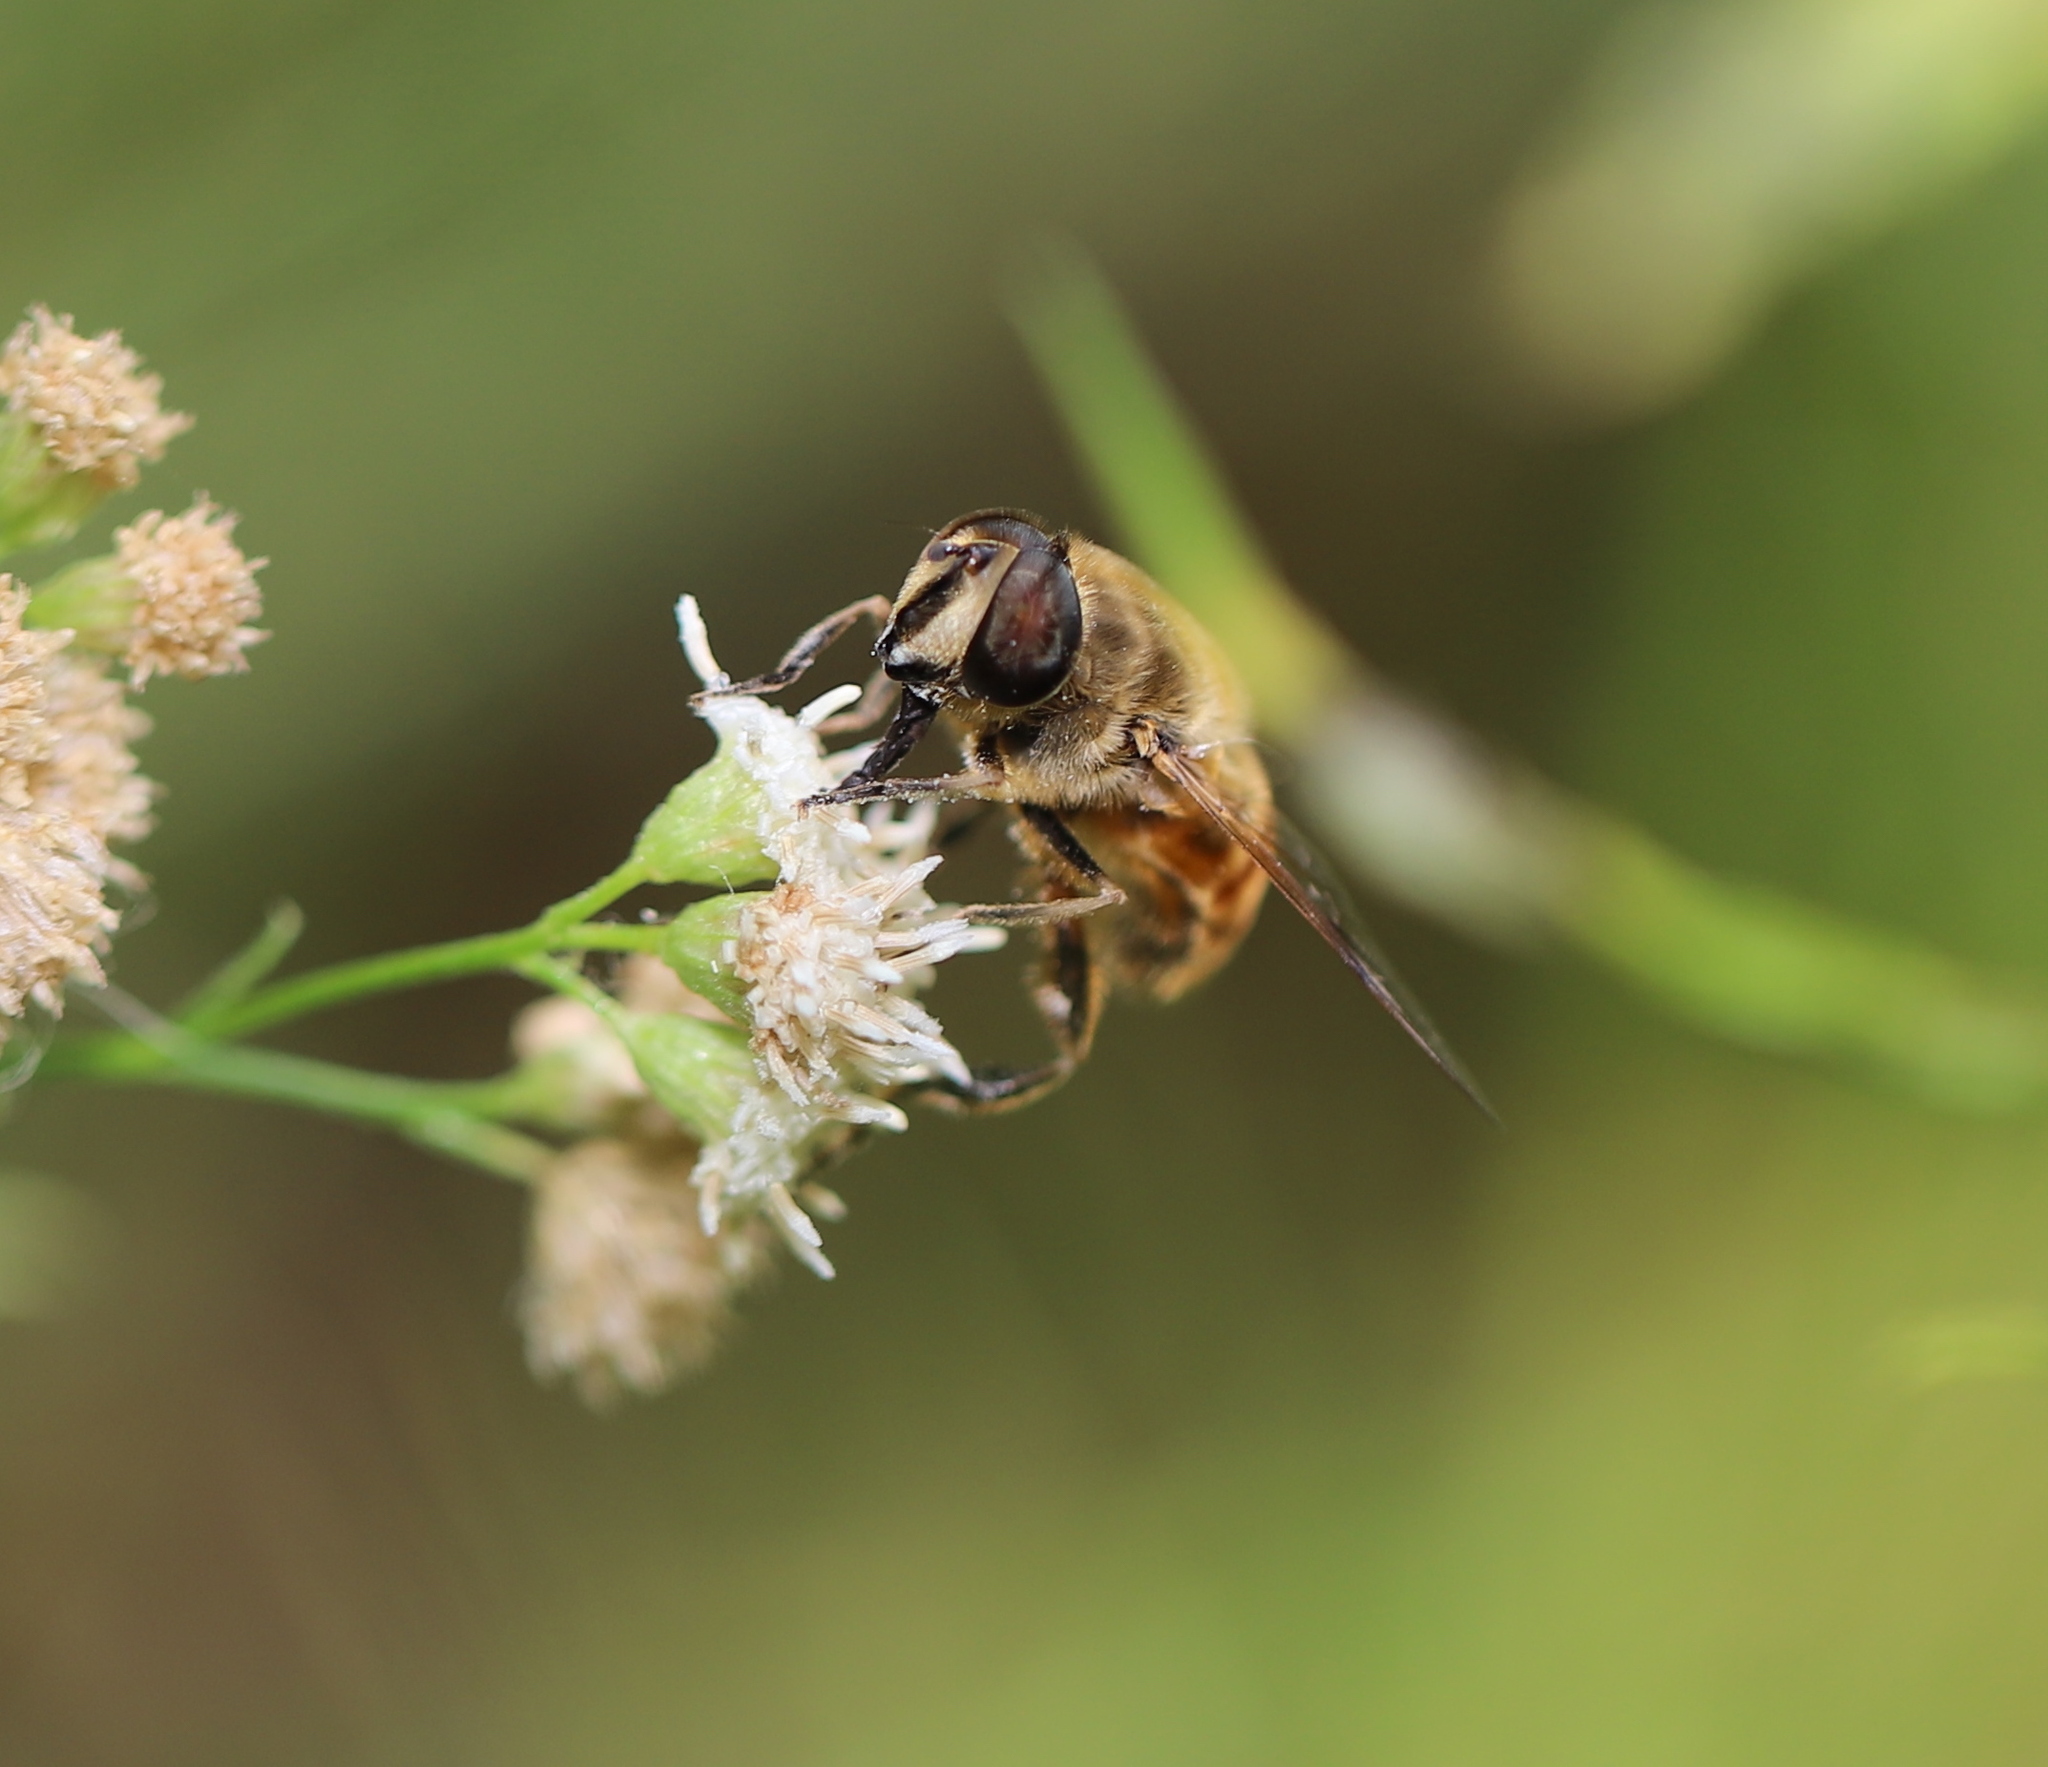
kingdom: Animalia
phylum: Arthropoda
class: Insecta
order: Diptera
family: Syrphidae
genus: Eristalis
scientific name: Eristalis tenax
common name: Drone fly
